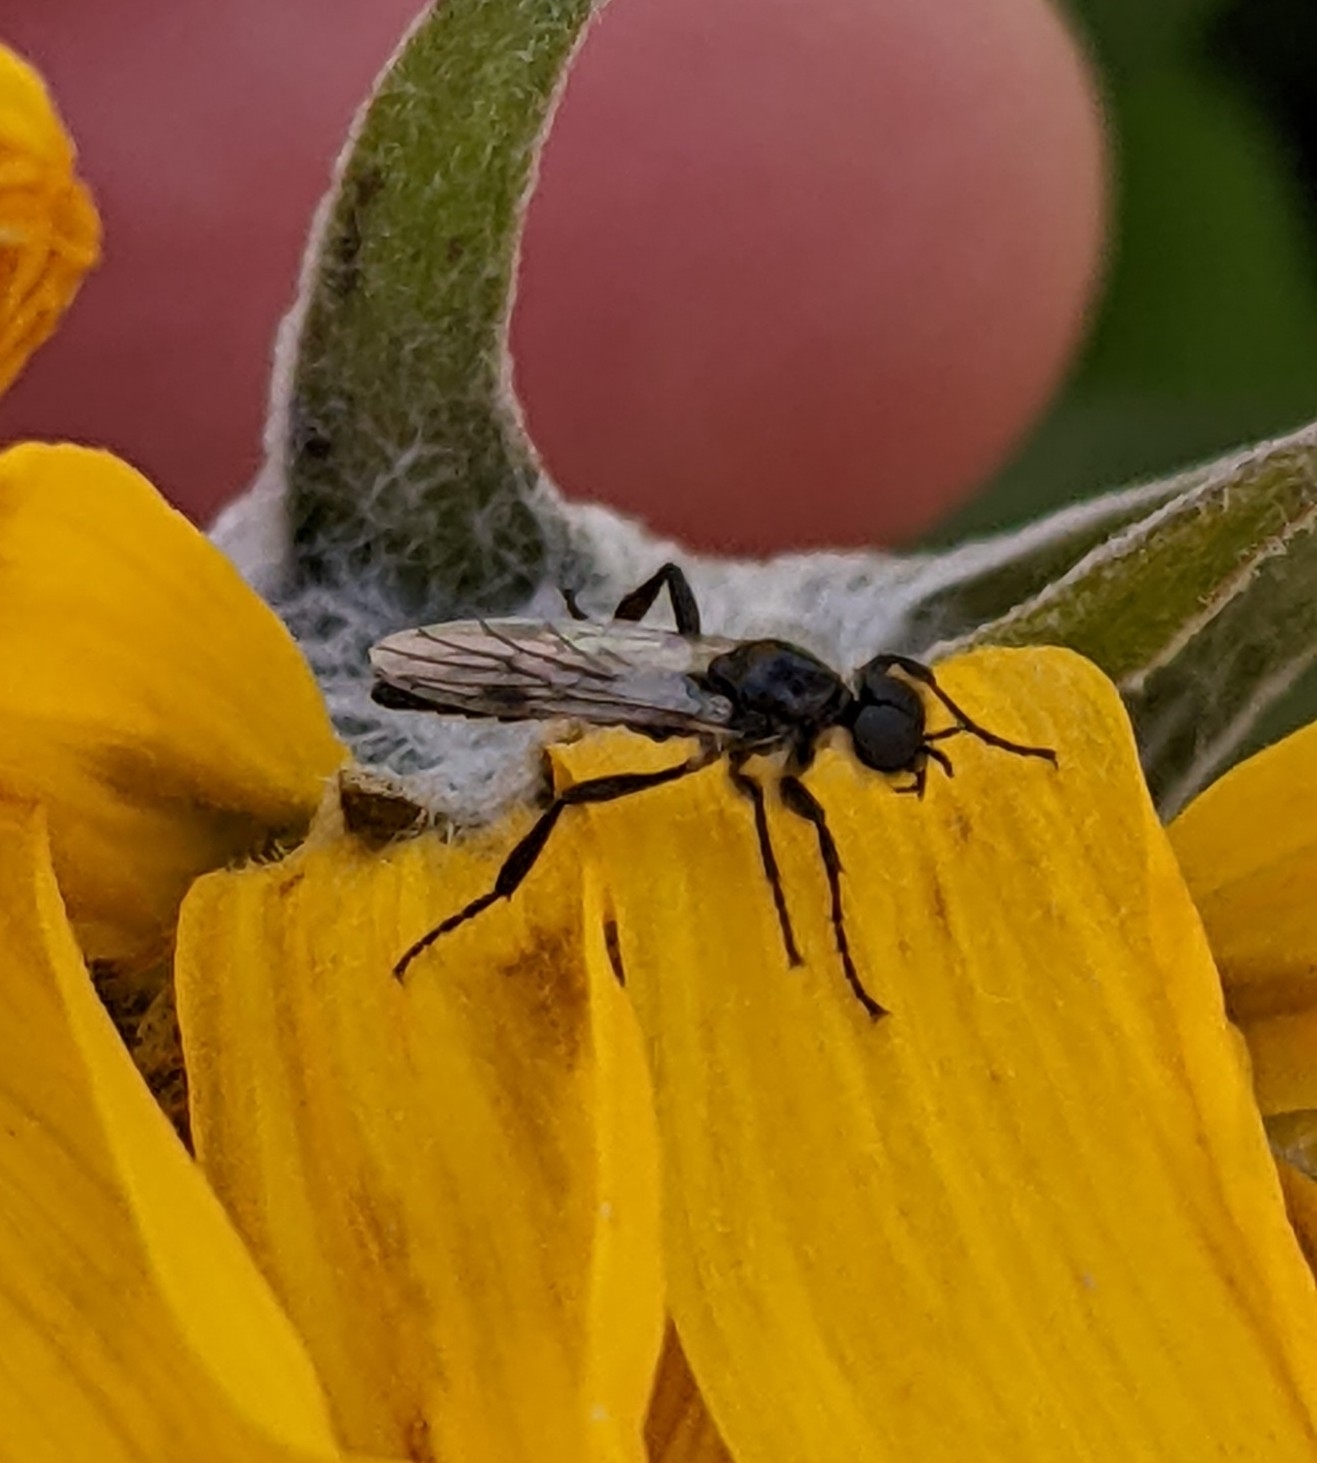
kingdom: Animalia
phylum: Arthropoda
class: Insecta
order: Diptera
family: Bibionidae
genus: Bibio
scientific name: Bibio albipennis
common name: White-winged march fly
